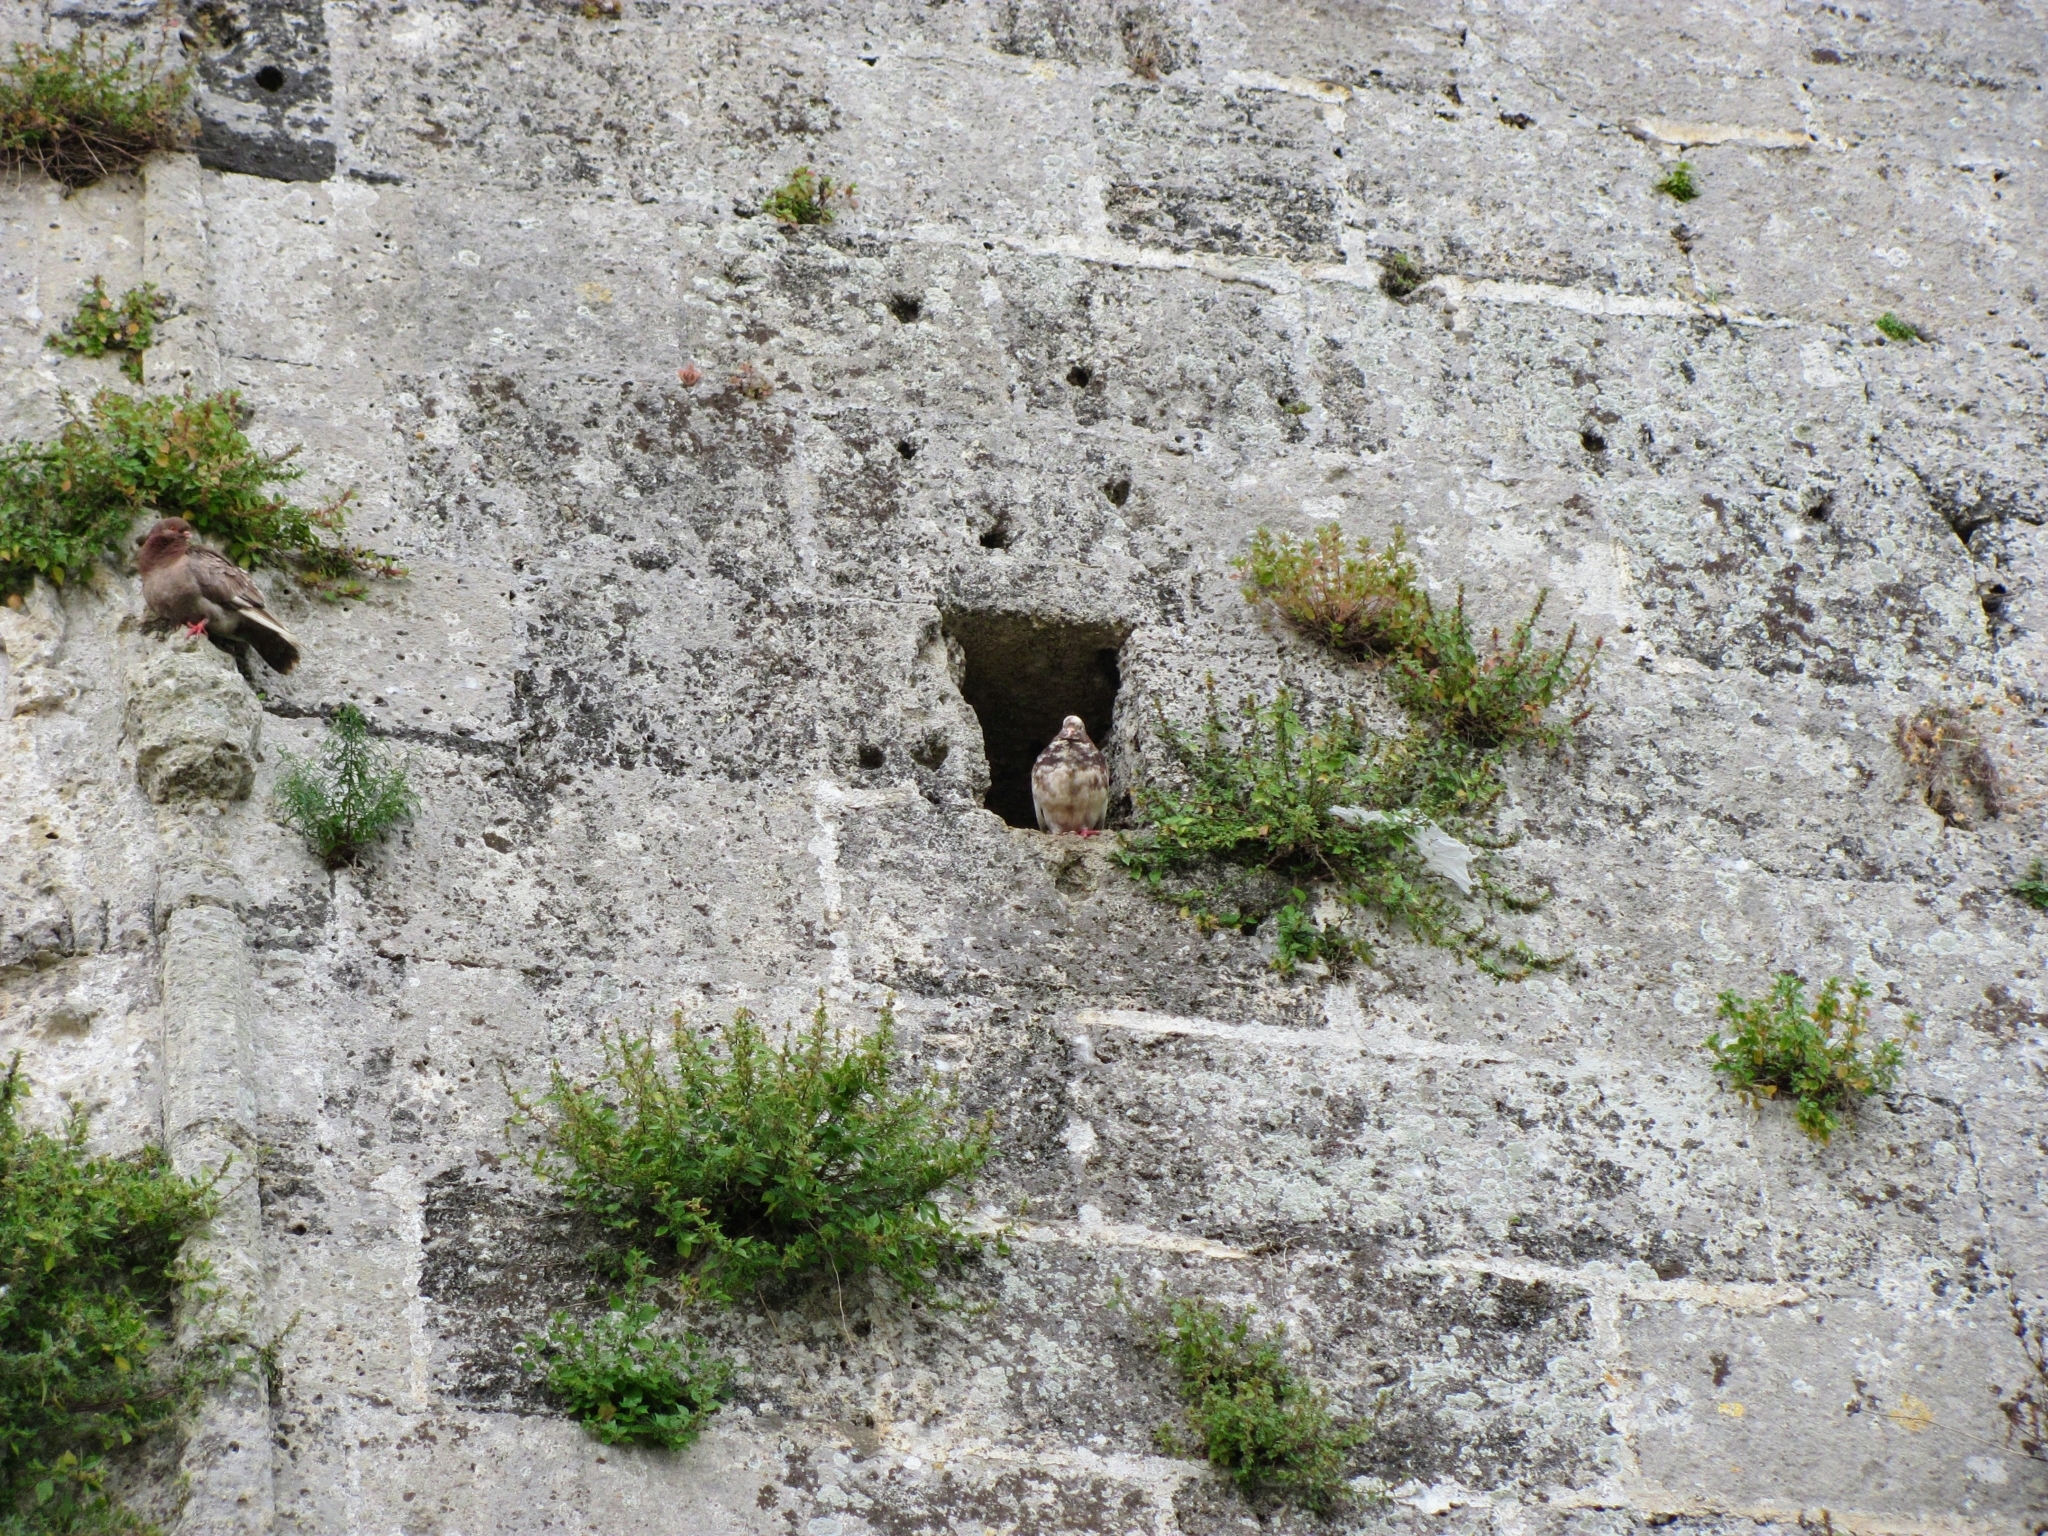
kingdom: Animalia
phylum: Chordata
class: Aves
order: Columbiformes
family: Columbidae
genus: Columba
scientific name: Columba livia
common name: Rock pigeon
